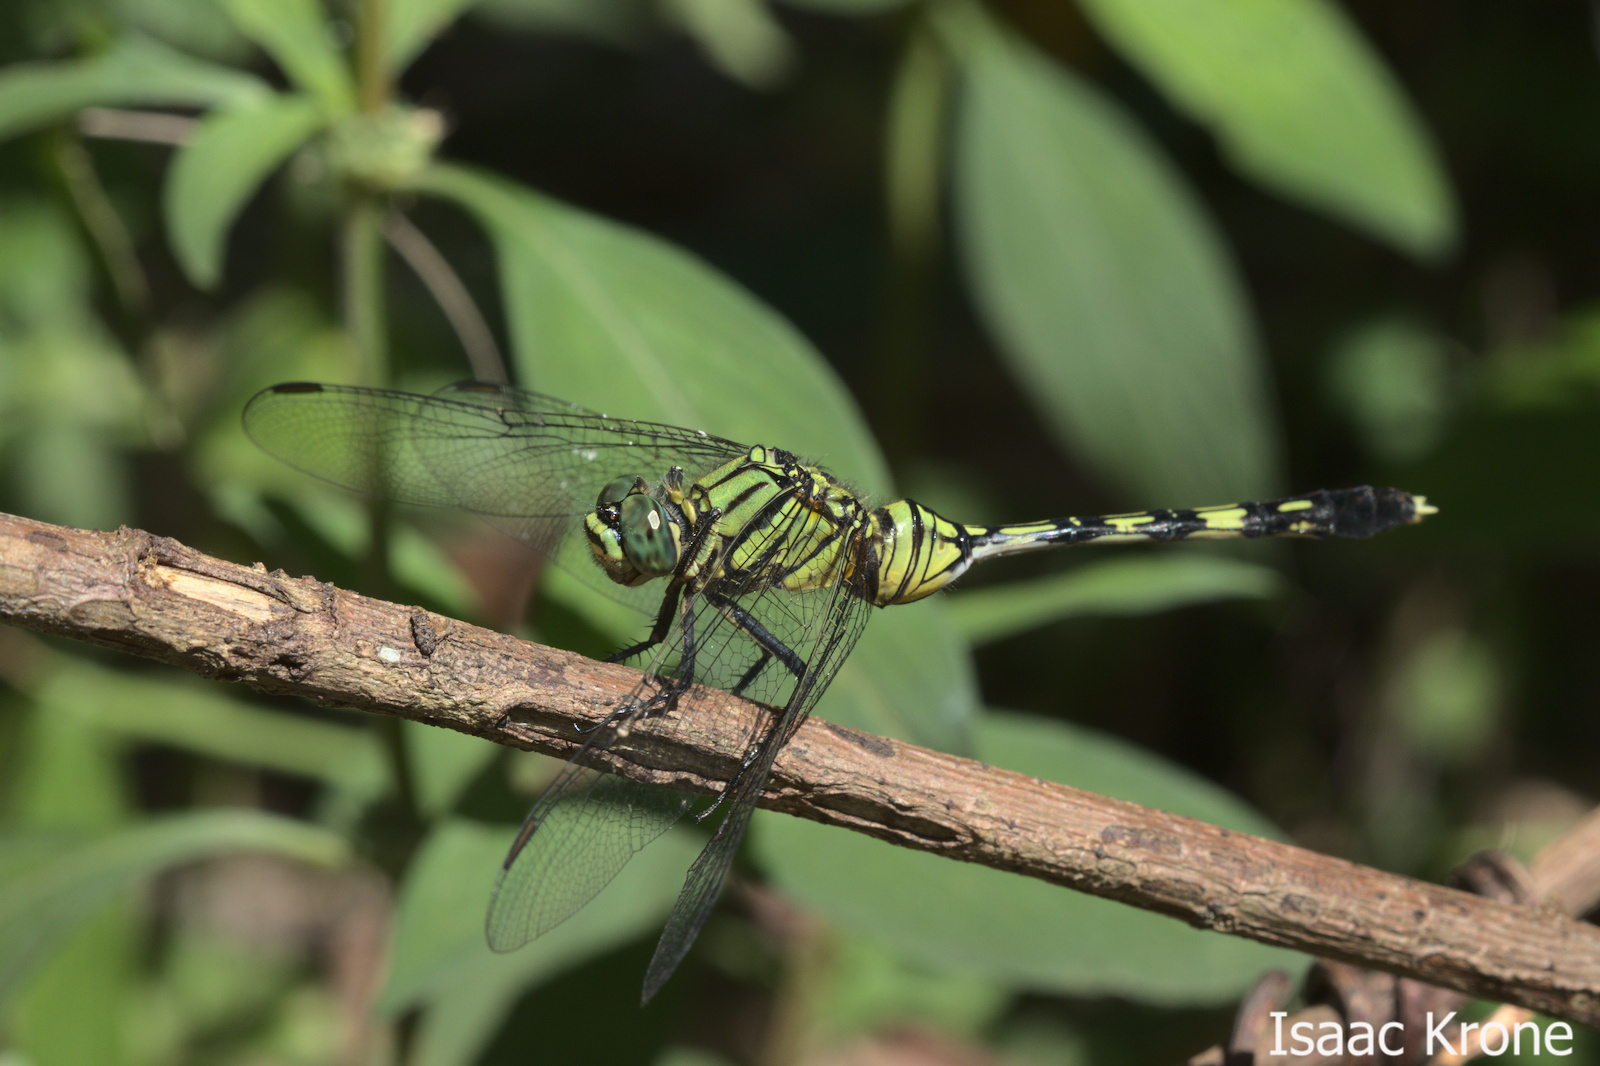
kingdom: Animalia
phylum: Arthropoda
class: Insecta
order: Odonata
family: Libellulidae
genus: Orthetrum
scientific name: Orthetrum serapia
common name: Green skimmer
